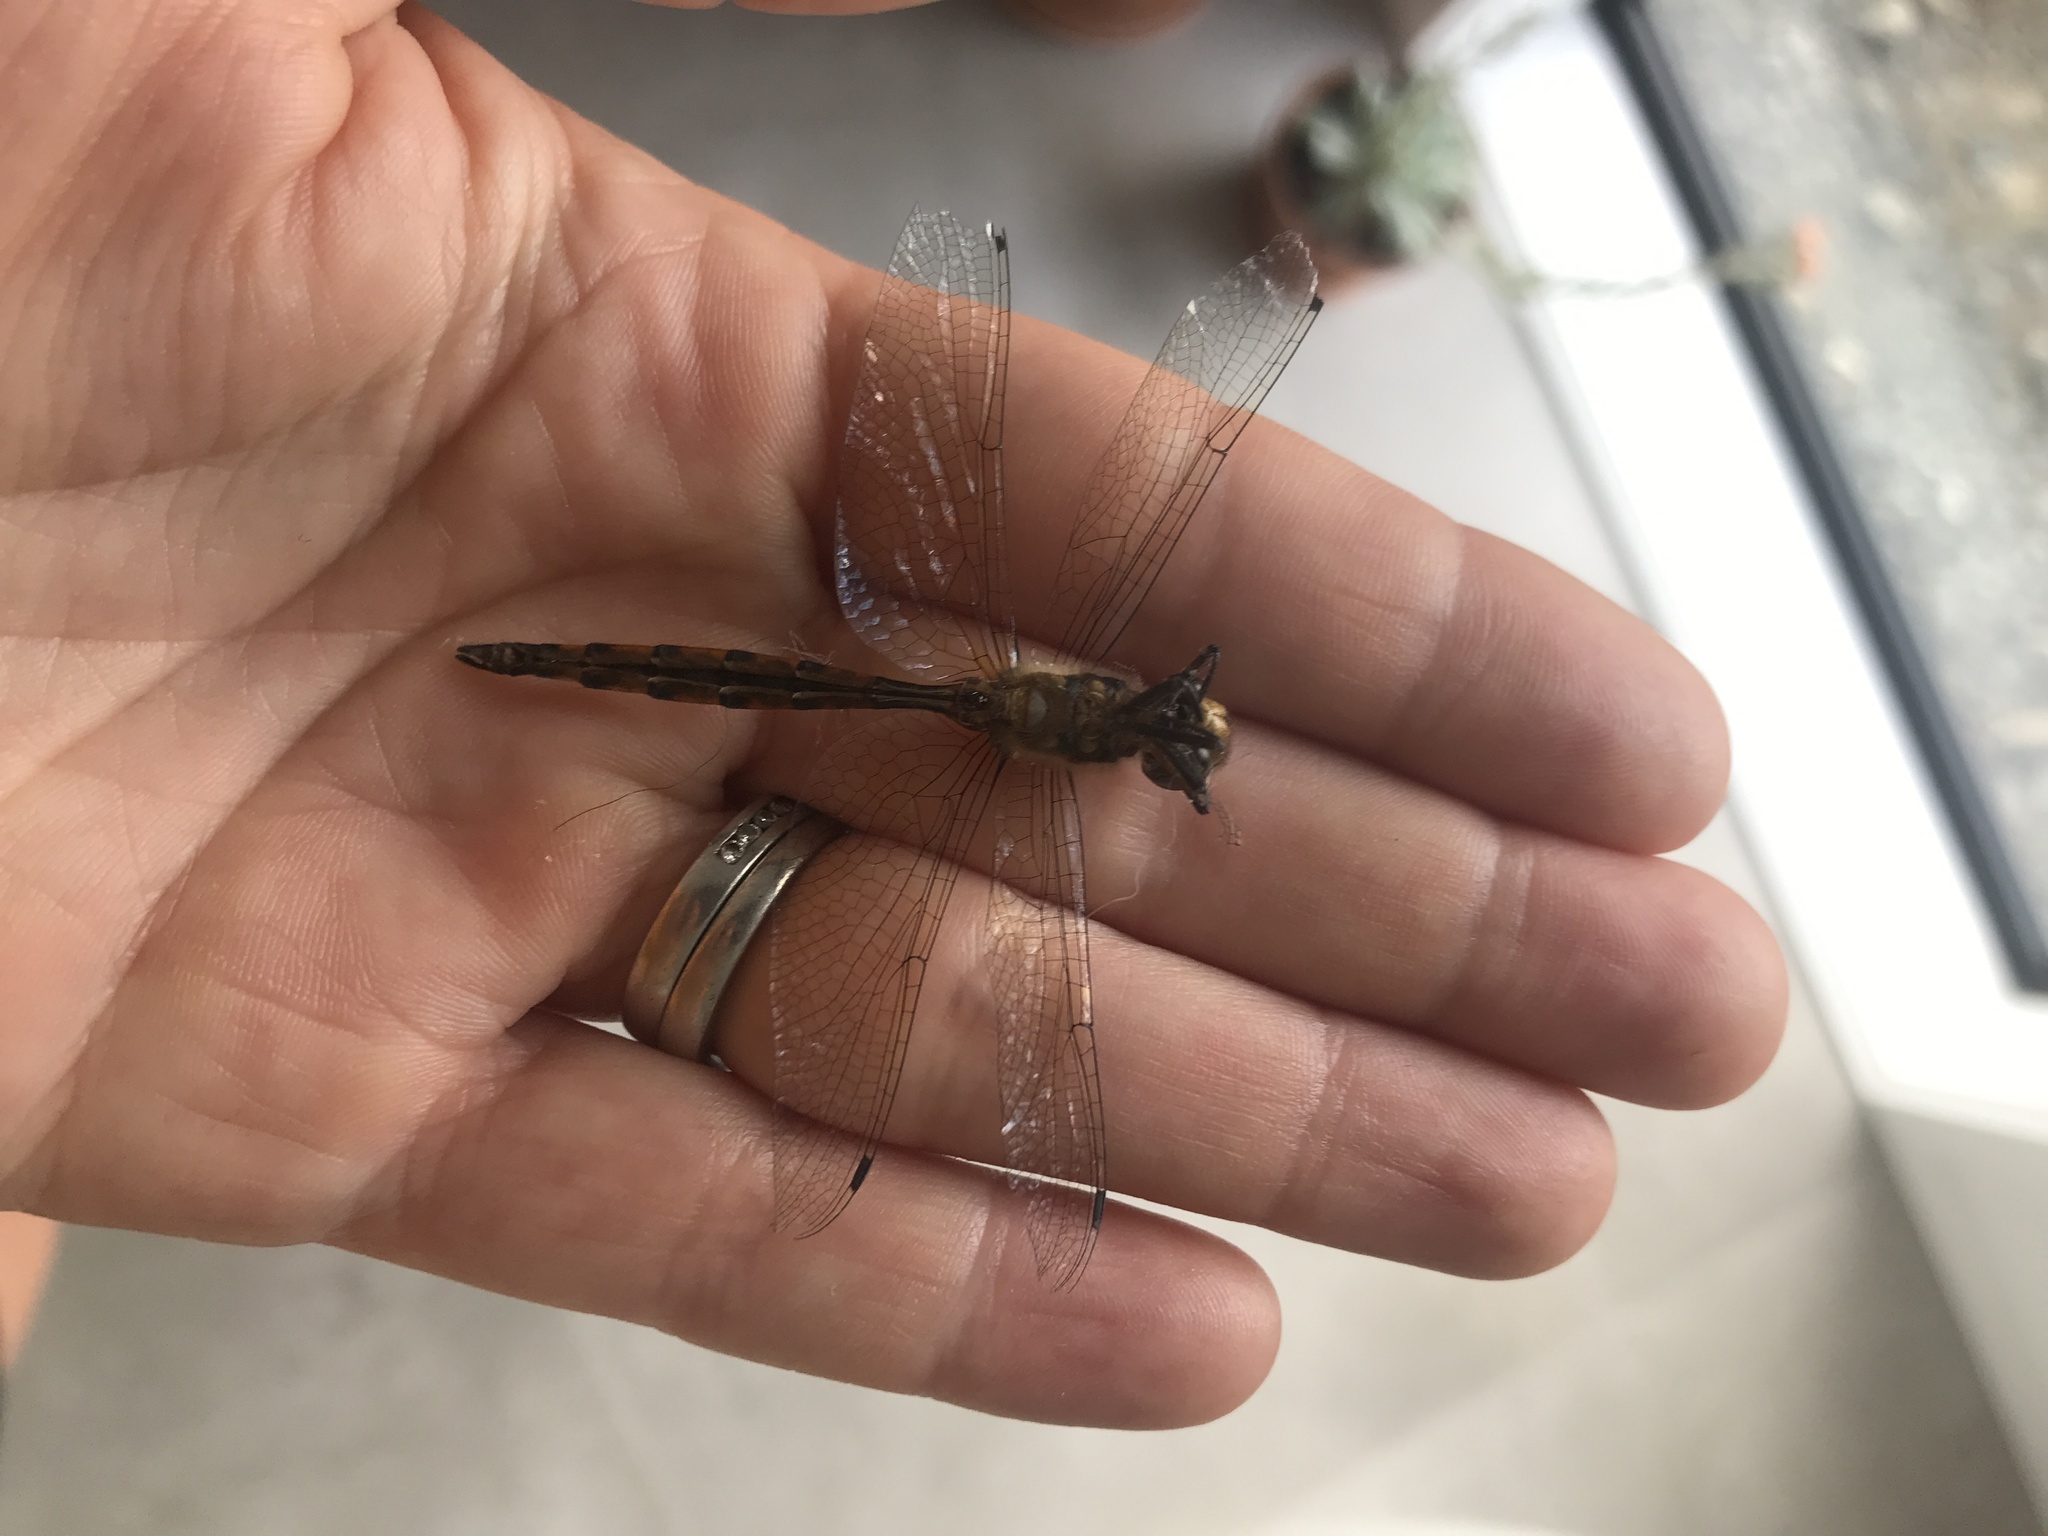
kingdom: Animalia
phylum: Arthropoda
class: Insecta
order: Odonata
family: Corduliidae
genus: Hemicordulia
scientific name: Hemicordulia armstrongi
